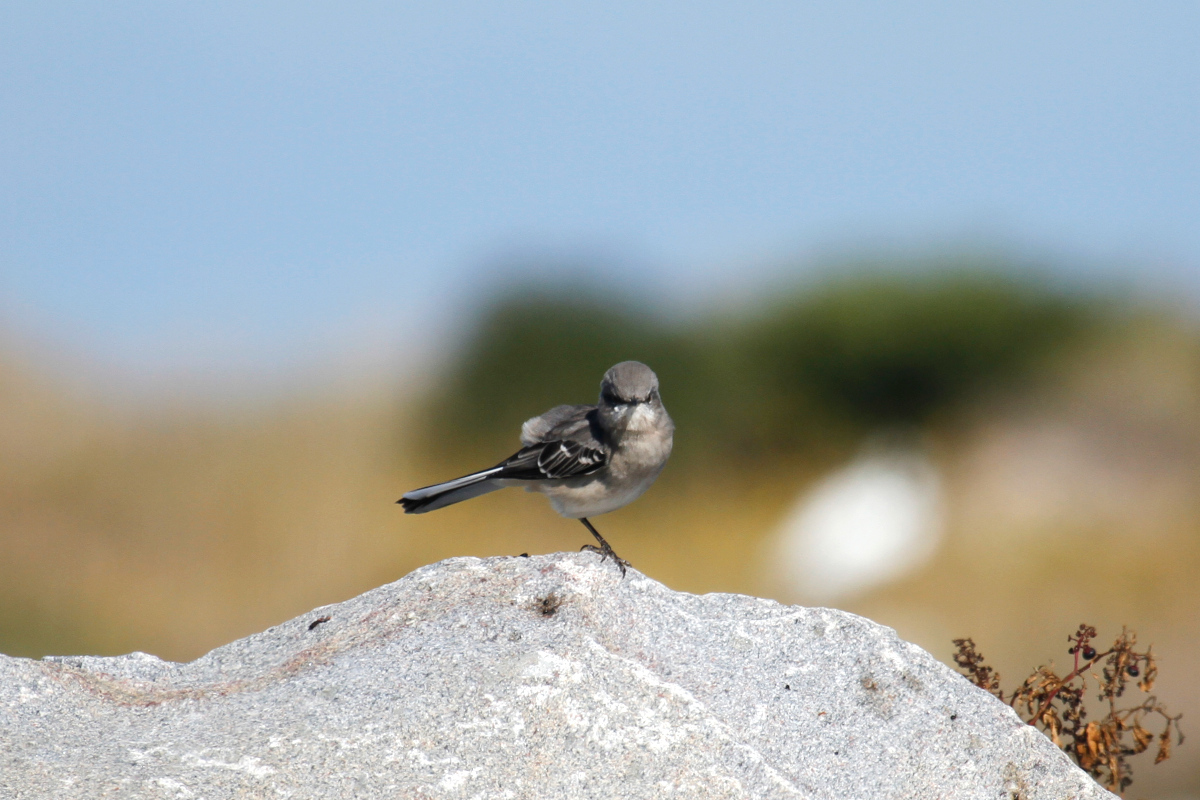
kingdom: Animalia
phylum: Chordata
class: Aves
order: Passeriformes
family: Mimidae
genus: Mimus
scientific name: Mimus polyglottos
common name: Northern mockingbird
